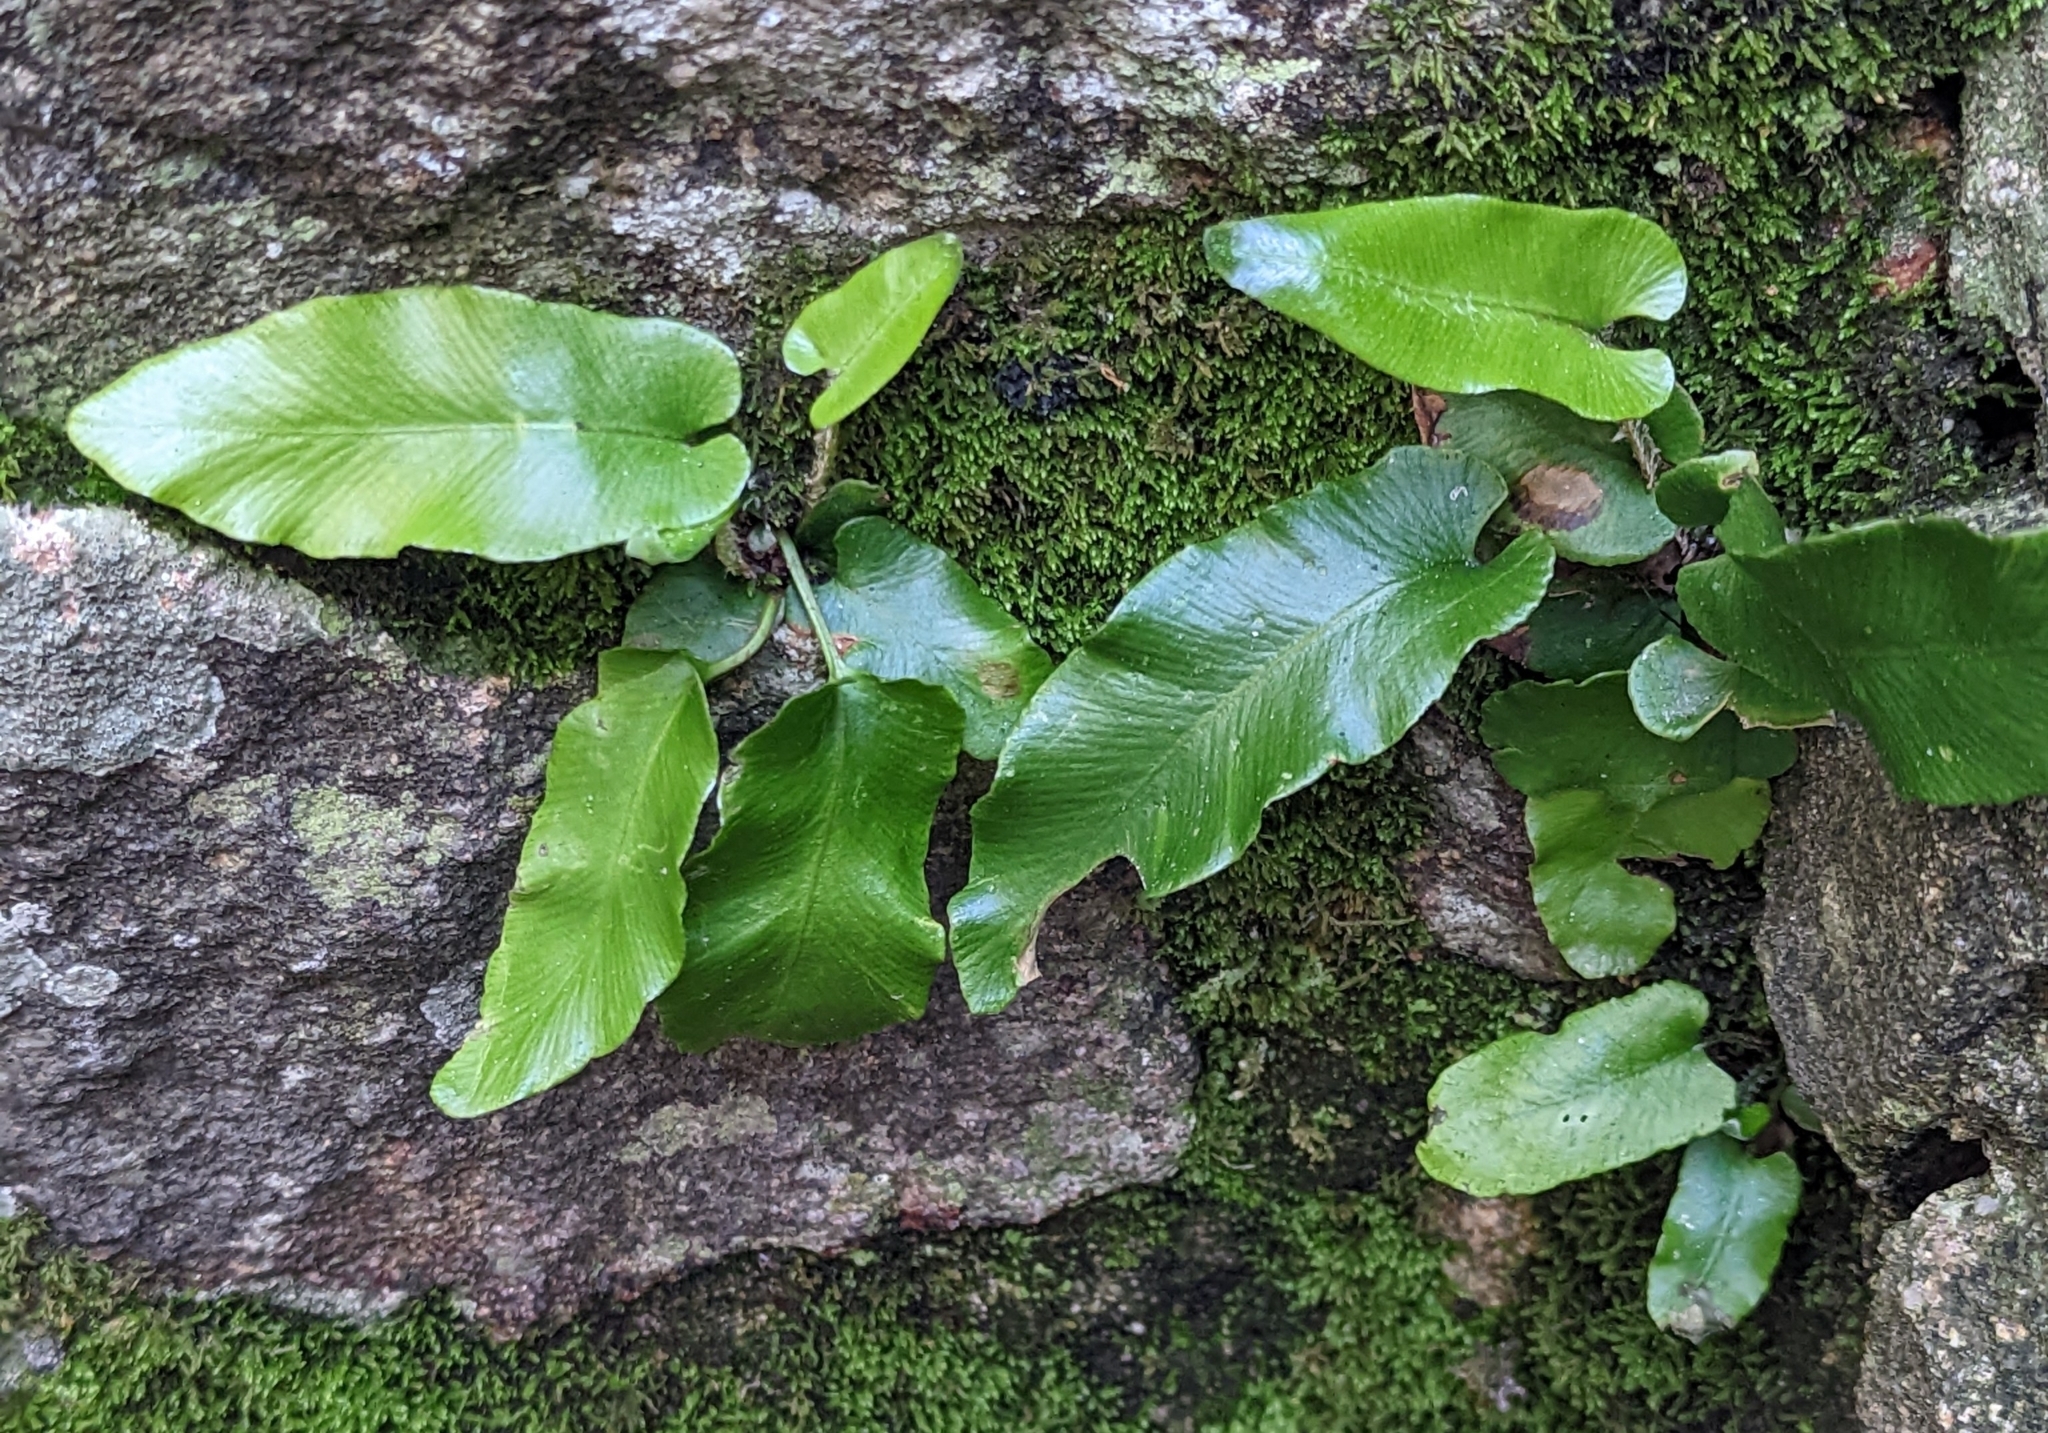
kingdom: Plantae
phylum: Tracheophyta
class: Polypodiopsida
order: Polypodiales
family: Aspleniaceae
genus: Asplenium
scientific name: Asplenium scolopendrium
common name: Hart's-tongue fern
